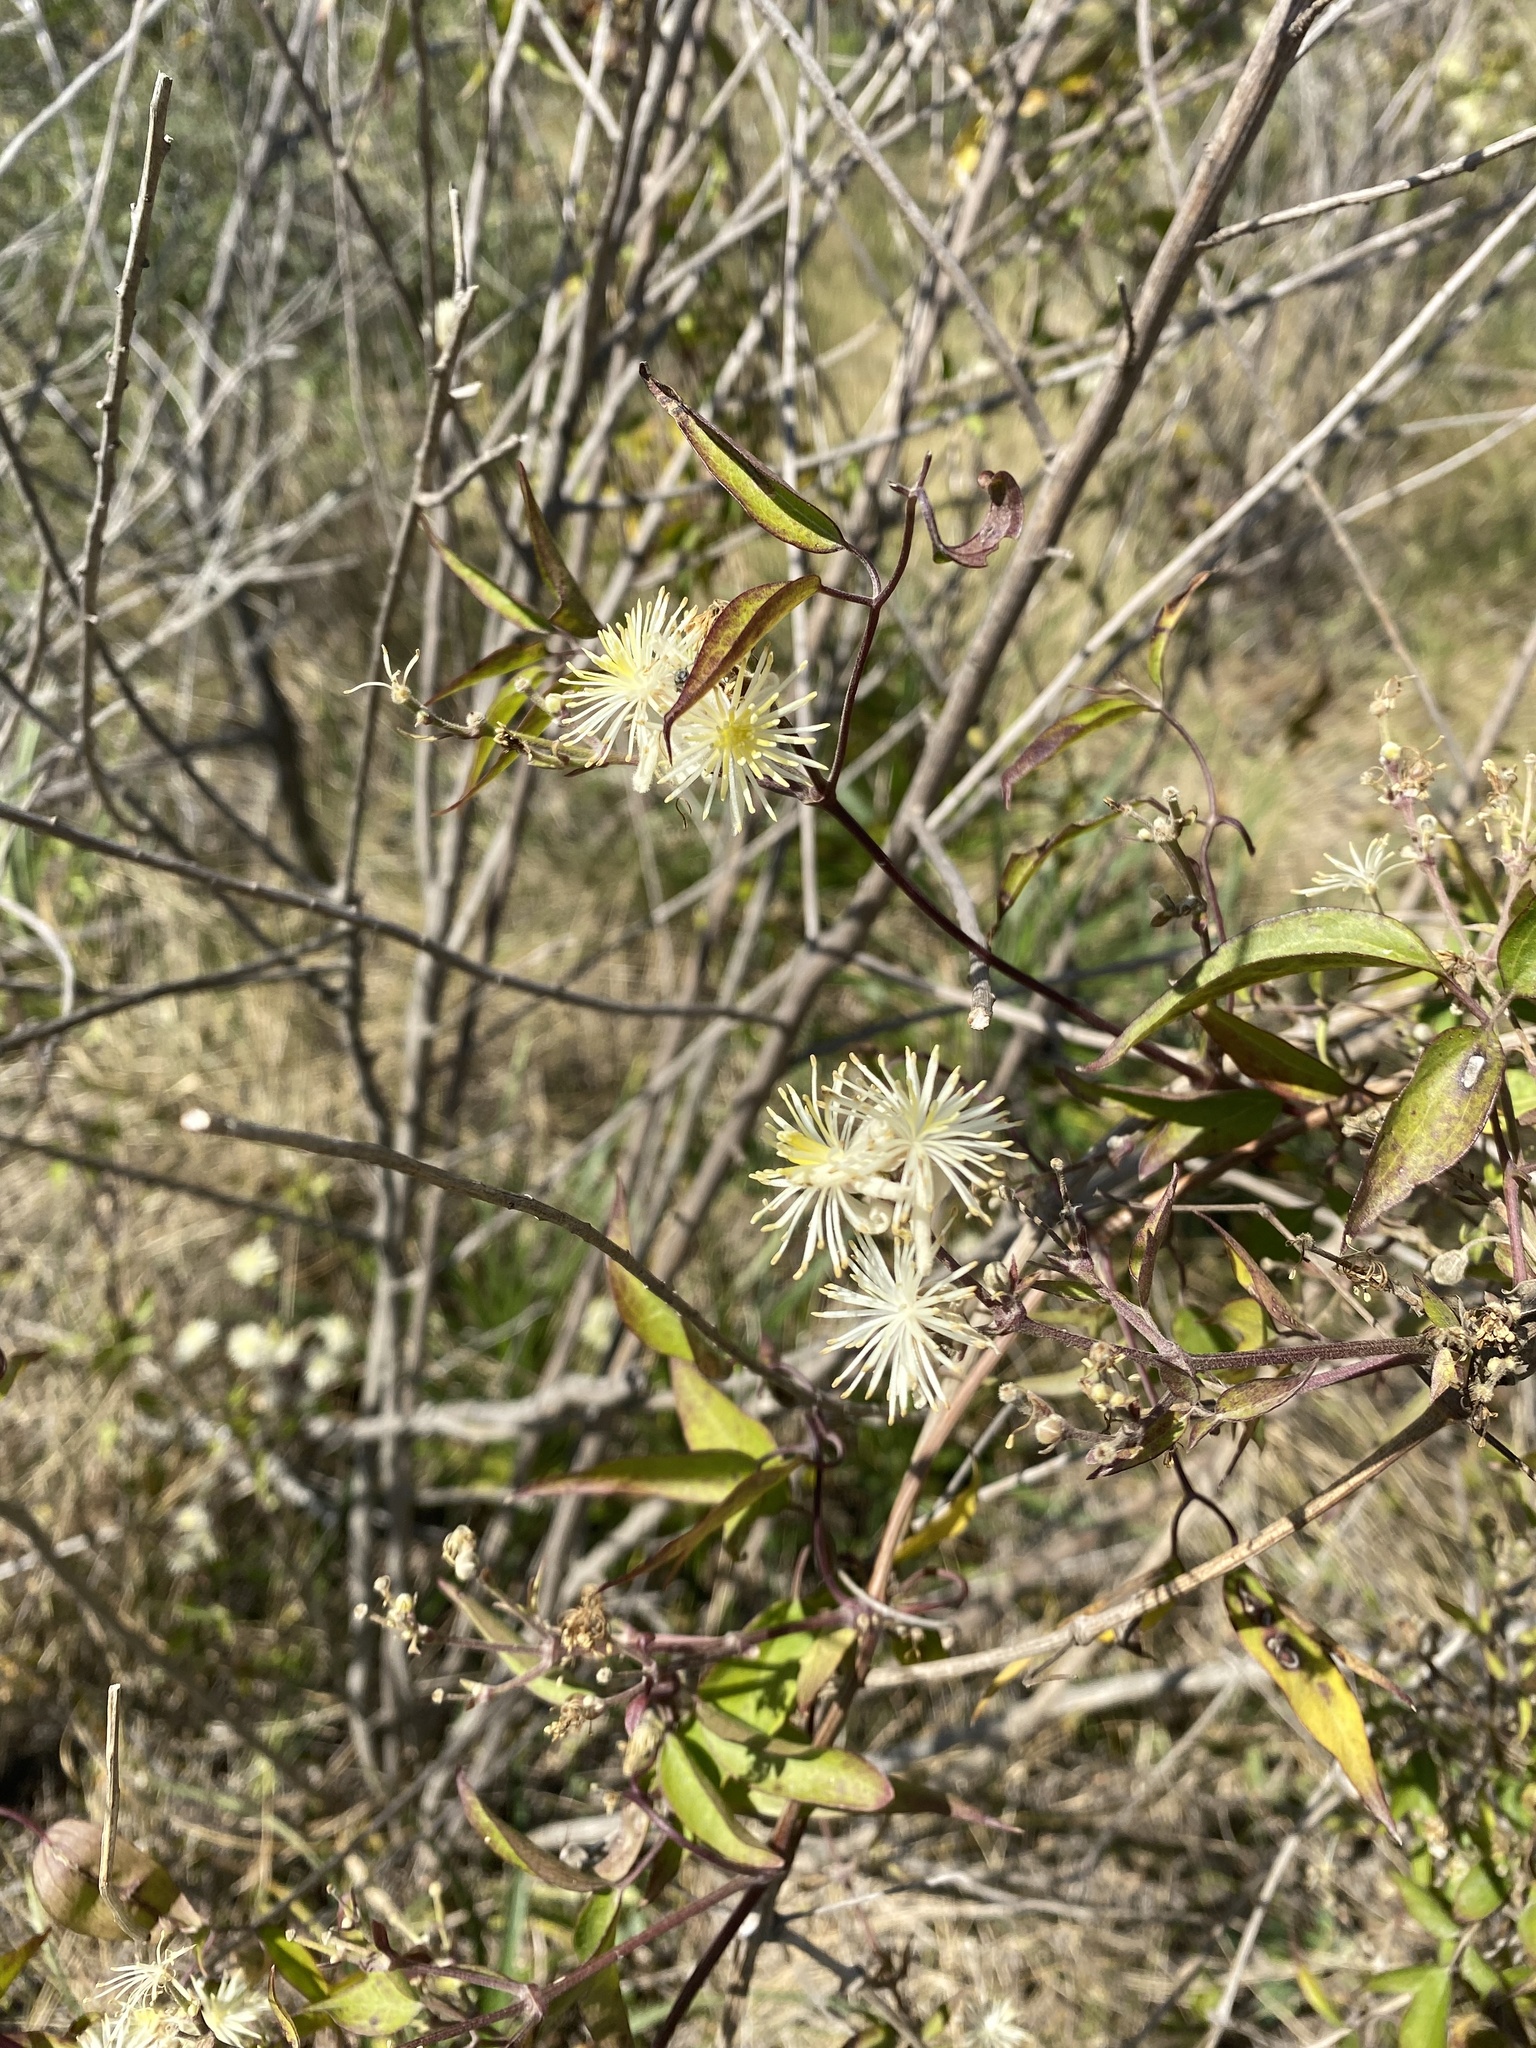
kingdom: Plantae
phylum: Tracheophyta
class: Magnoliopsida
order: Ranunculales
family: Ranunculaceae
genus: Clematis
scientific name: Clematis montevidensis
